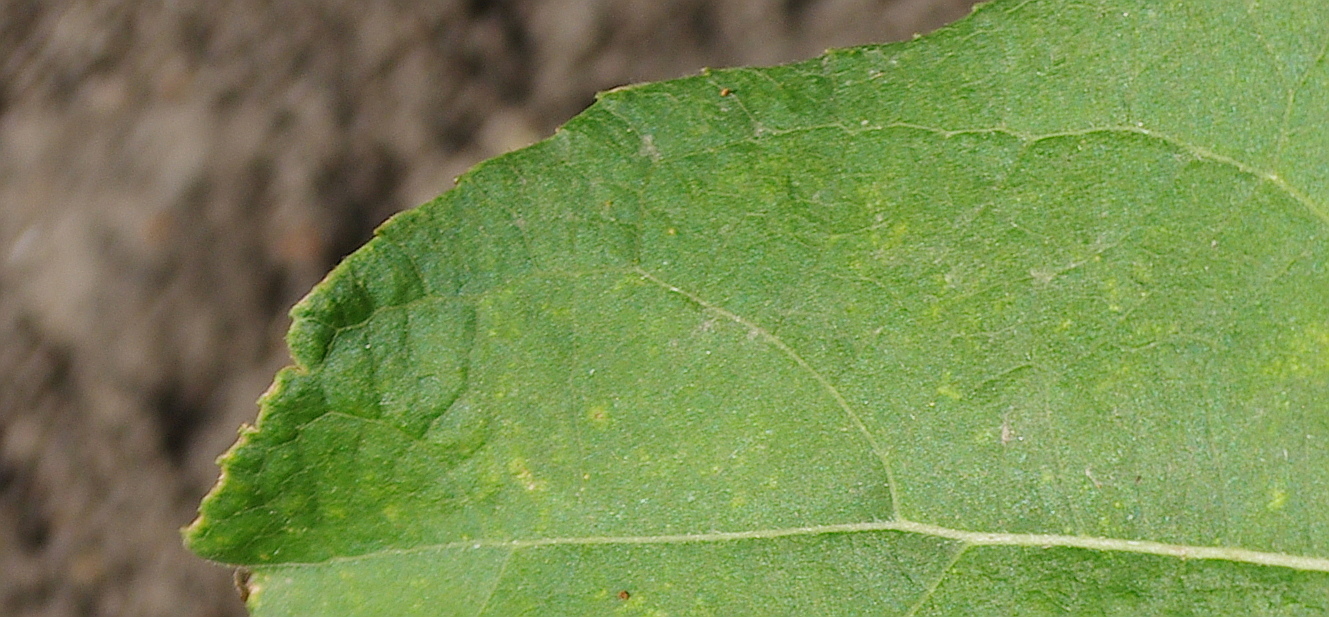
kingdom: Plantae
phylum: Tracheophyta
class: Magnoliopsida
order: Malpighiales
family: Salicaceae
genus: Populus
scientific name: Populus tremula
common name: European aspen
